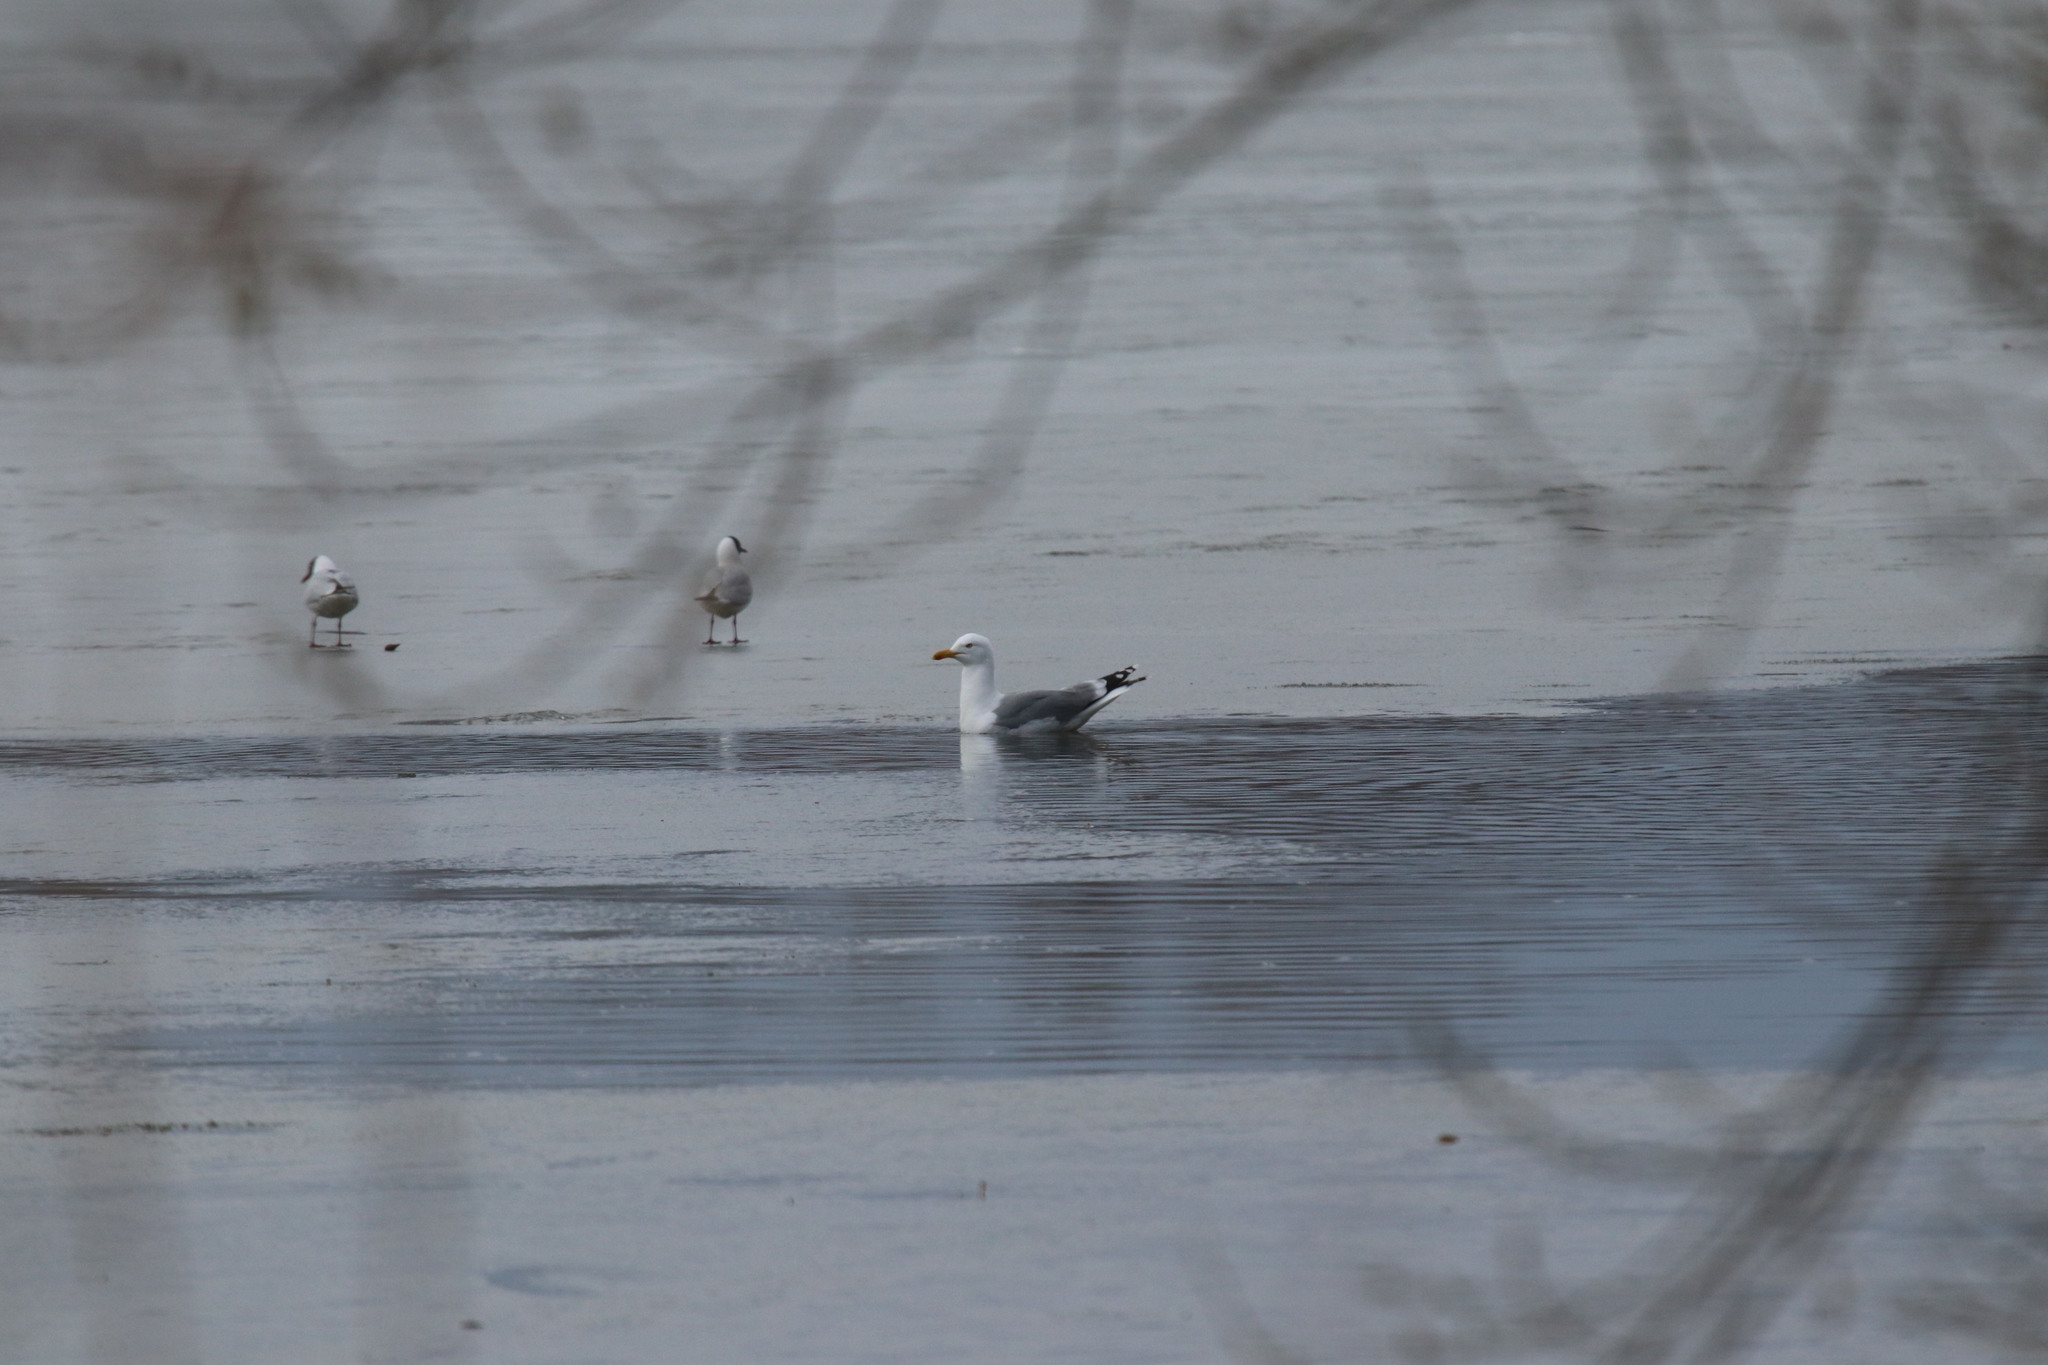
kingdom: Animalia
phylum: Chordata
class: Aves
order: Charadriiformes
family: Laridae
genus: Larus
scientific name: Larus cachinnans
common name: Caspian gull
